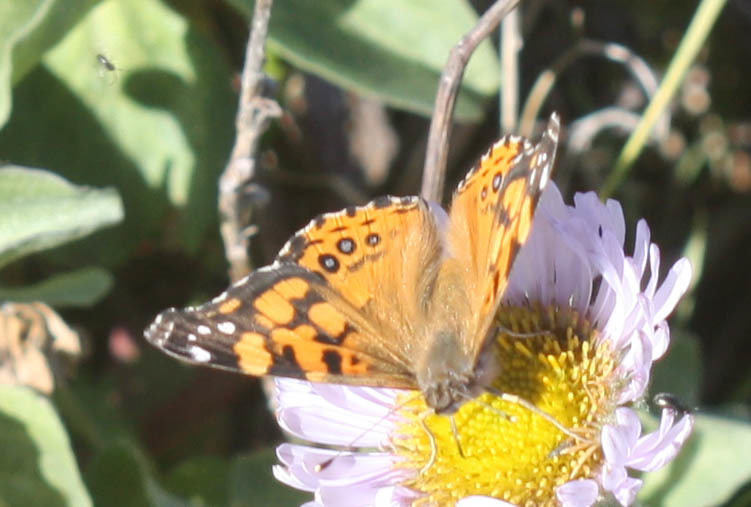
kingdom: Animalia
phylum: Arthropoda
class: Insecta
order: Lepidoptera
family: Nymphalidae
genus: Vanessa
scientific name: Vanessa annabella
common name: West coast lady
